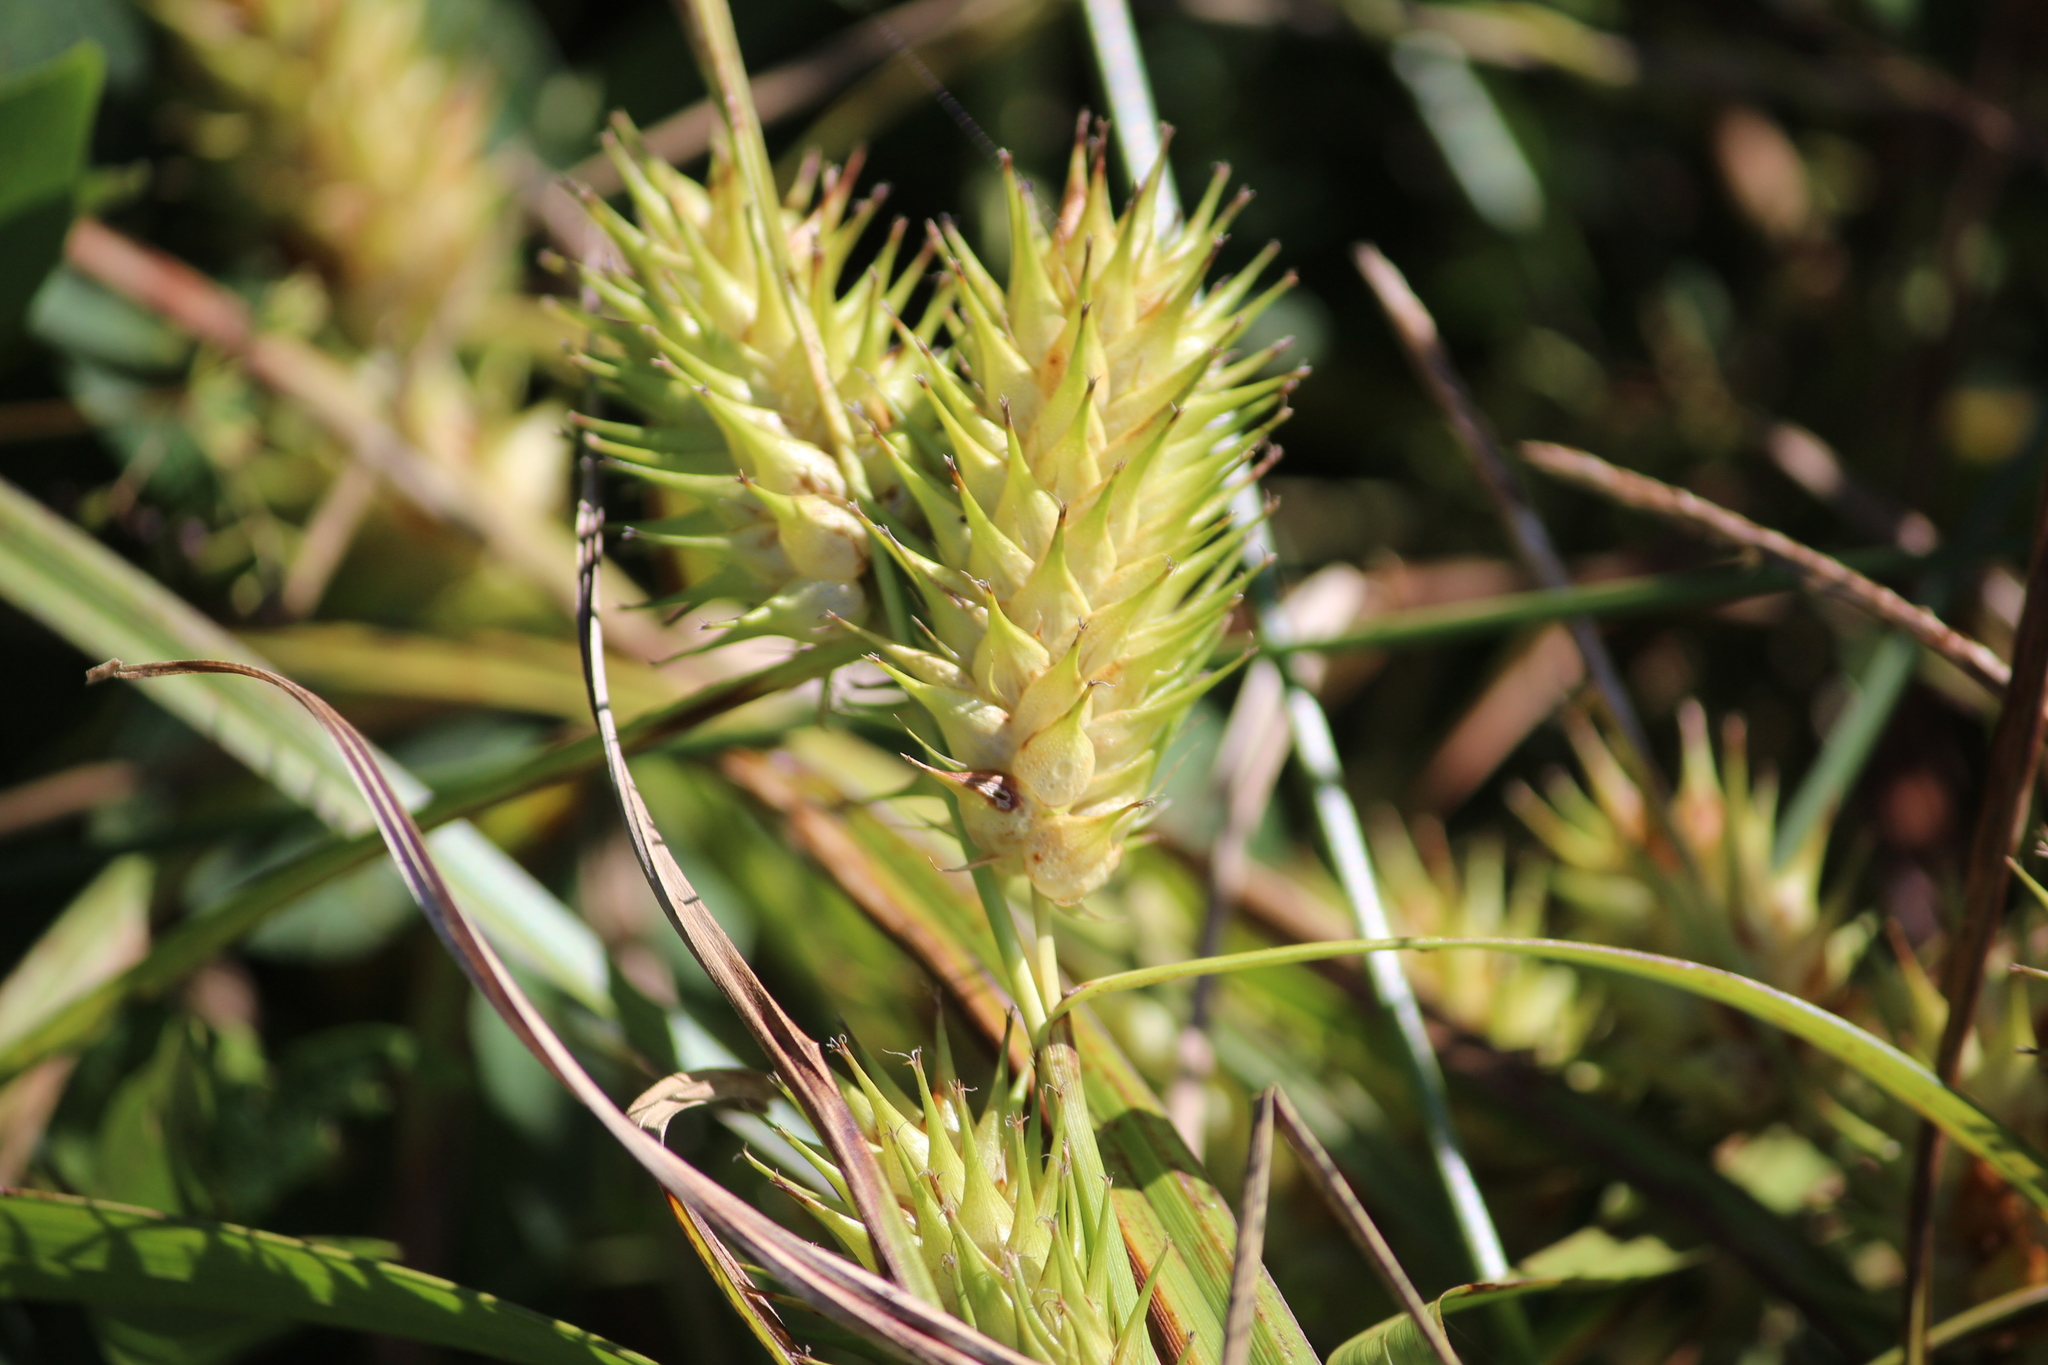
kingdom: Plantae
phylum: Tracheophyta
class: Liliopsida
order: Poales
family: Cyperaceae
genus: Carex
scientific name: Carex lupulina
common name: Hop sedge
